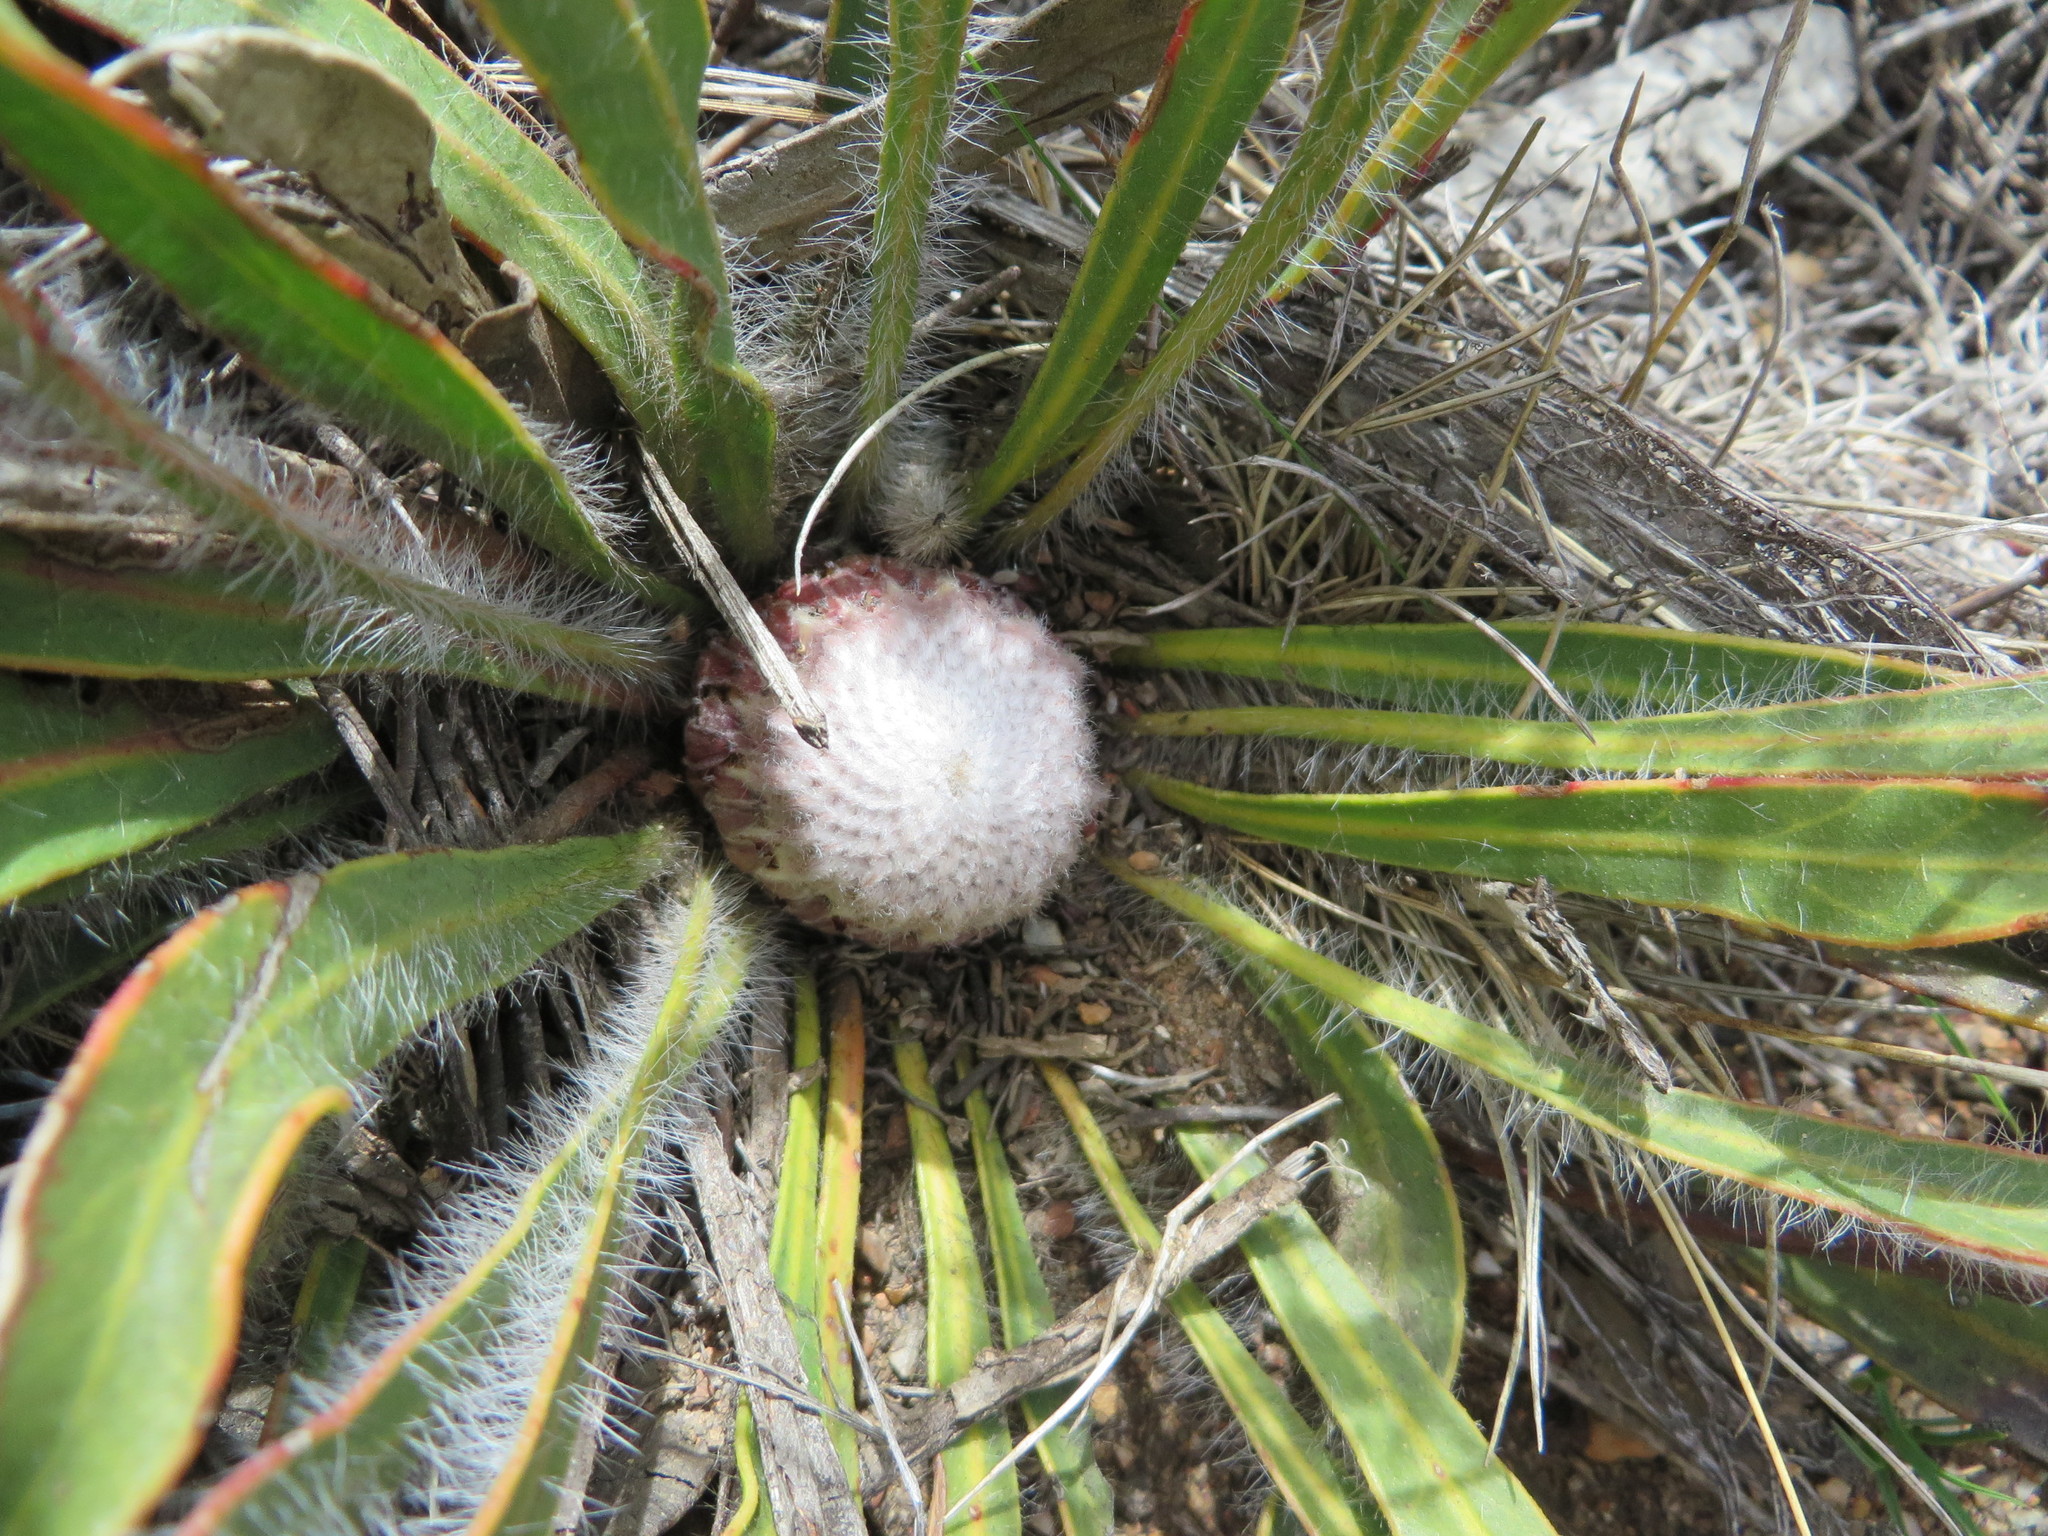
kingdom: Plantae
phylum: Tracheophyta
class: Magnoliopsida
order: Proteales
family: Proteaceae
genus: Protea
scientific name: Protea scabriuscula
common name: Hoary sugarbush
